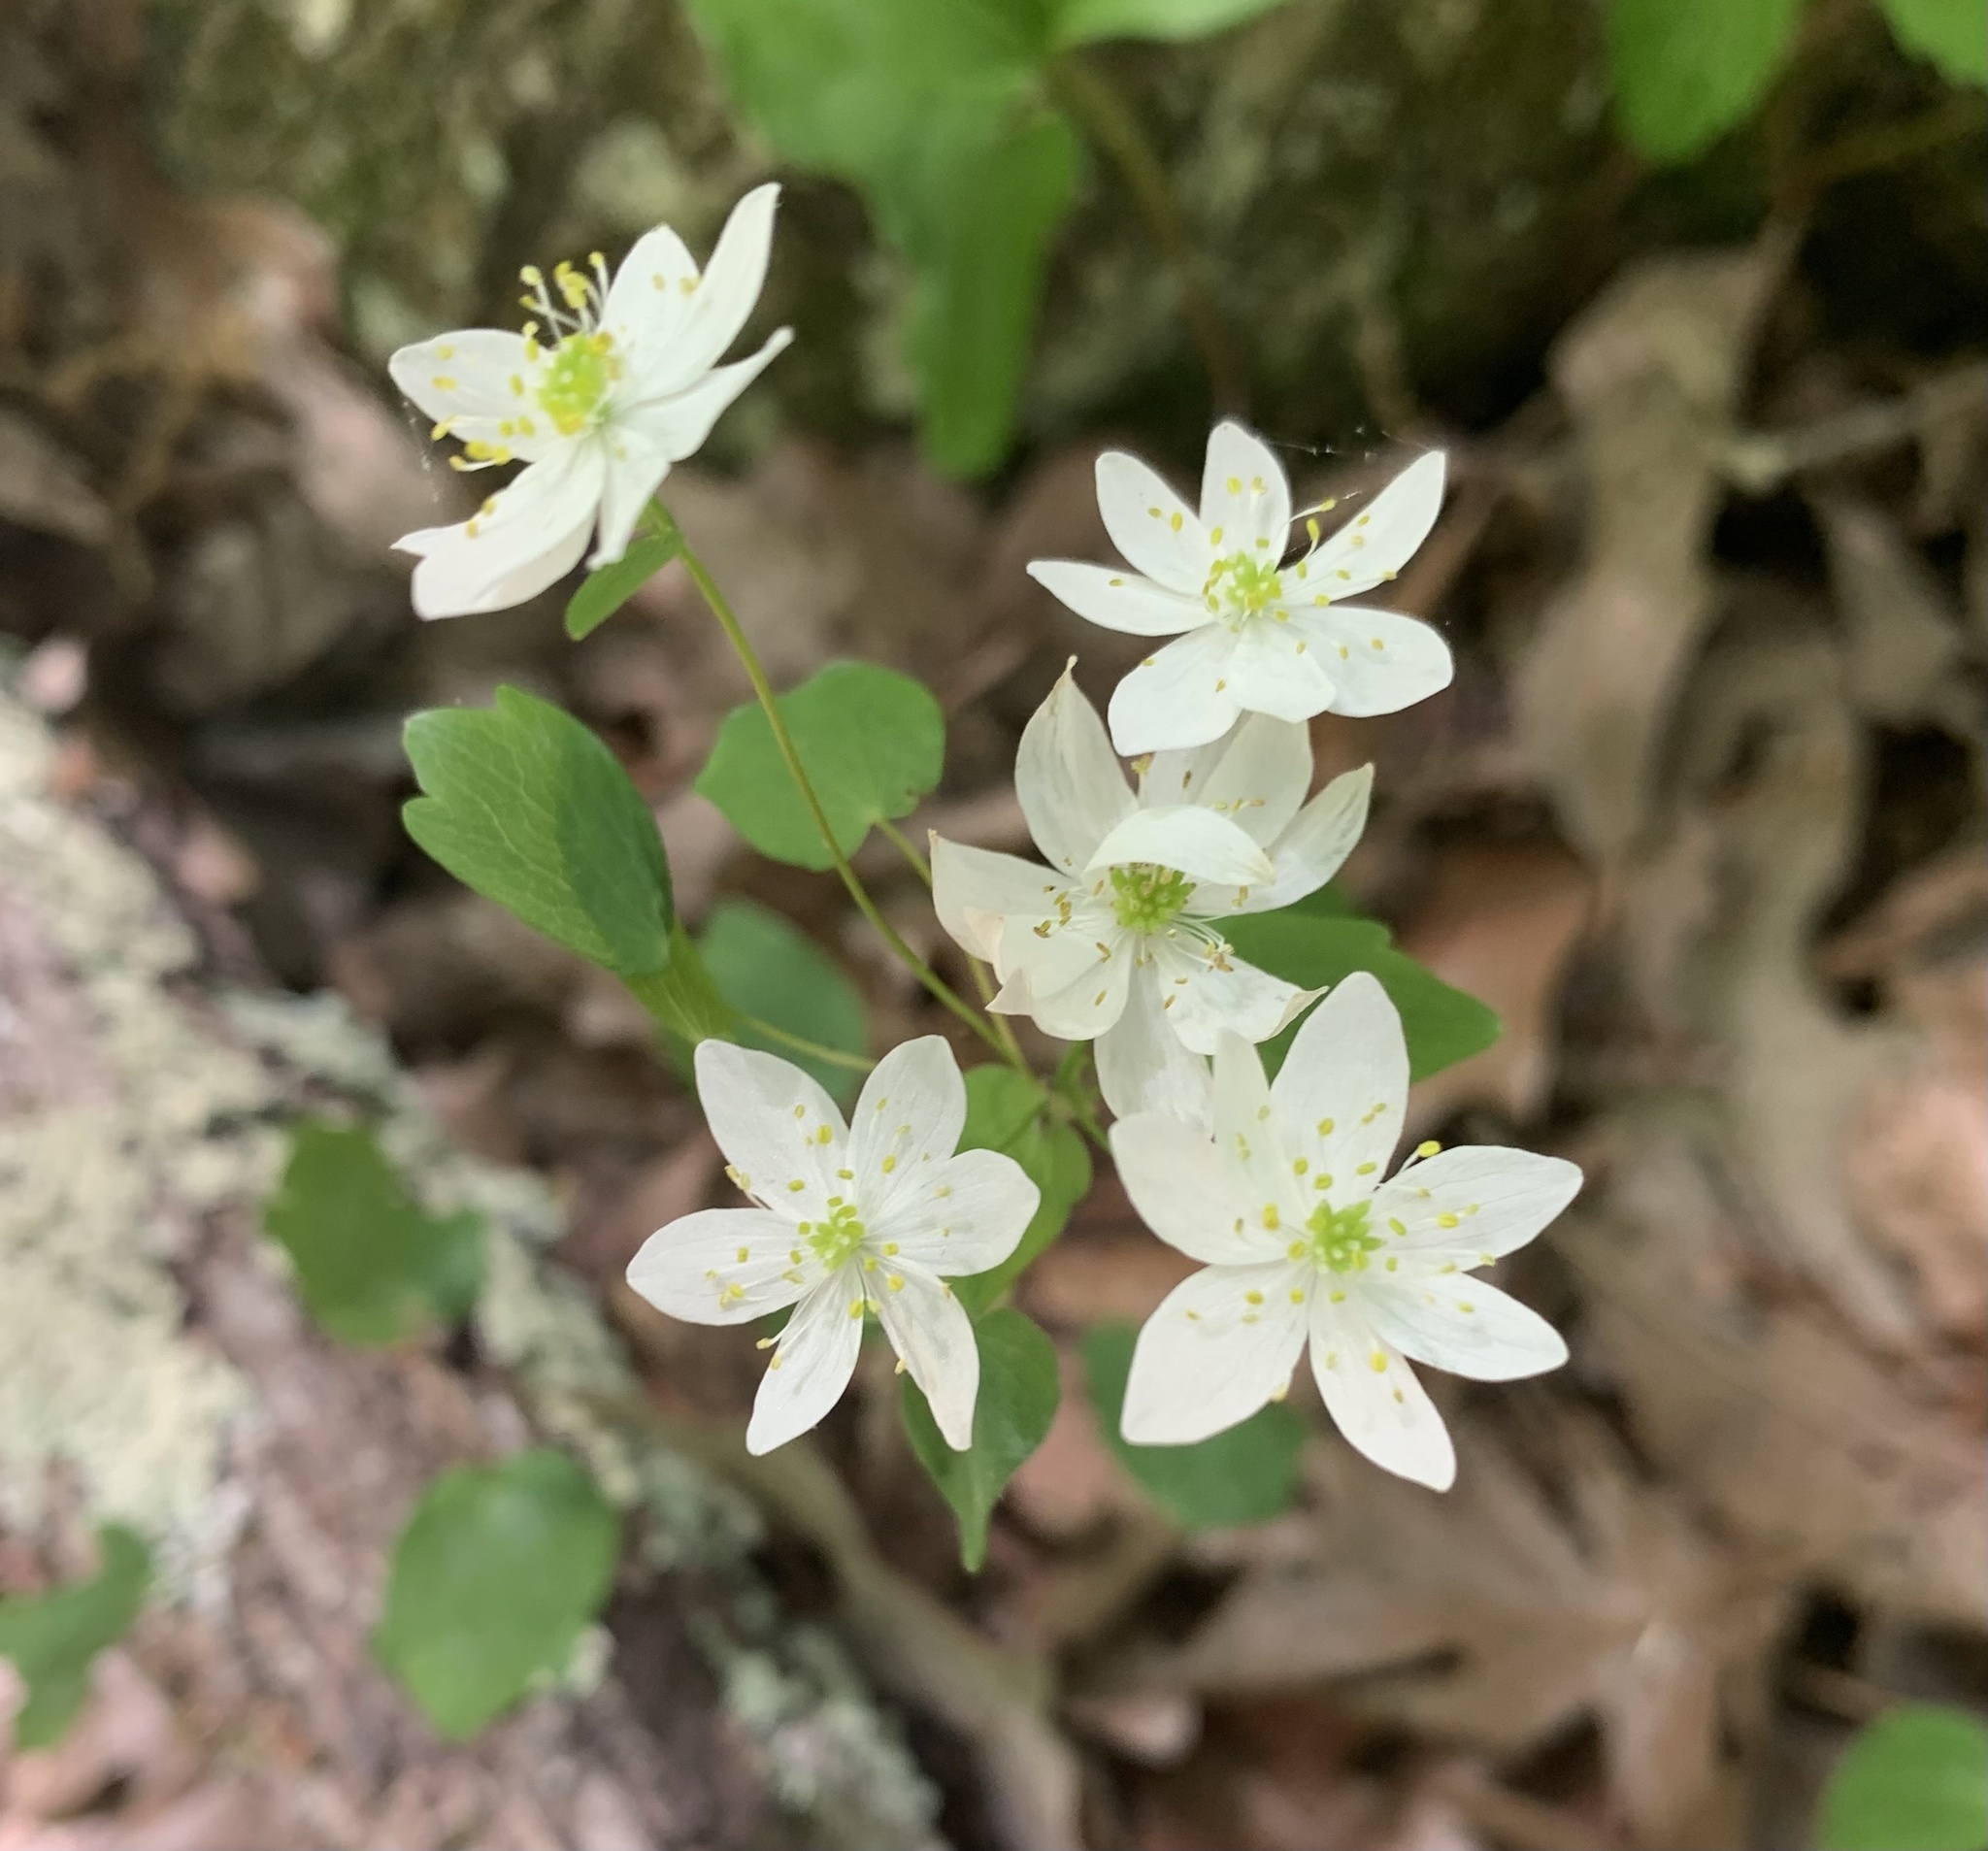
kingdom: Plantae
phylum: Tracheophyta
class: Magnoliopsida
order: Ranunculales
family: Ranunculaceae
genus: Thalictrum
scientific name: Thalictrum thalictroides
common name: Rue-anemone
